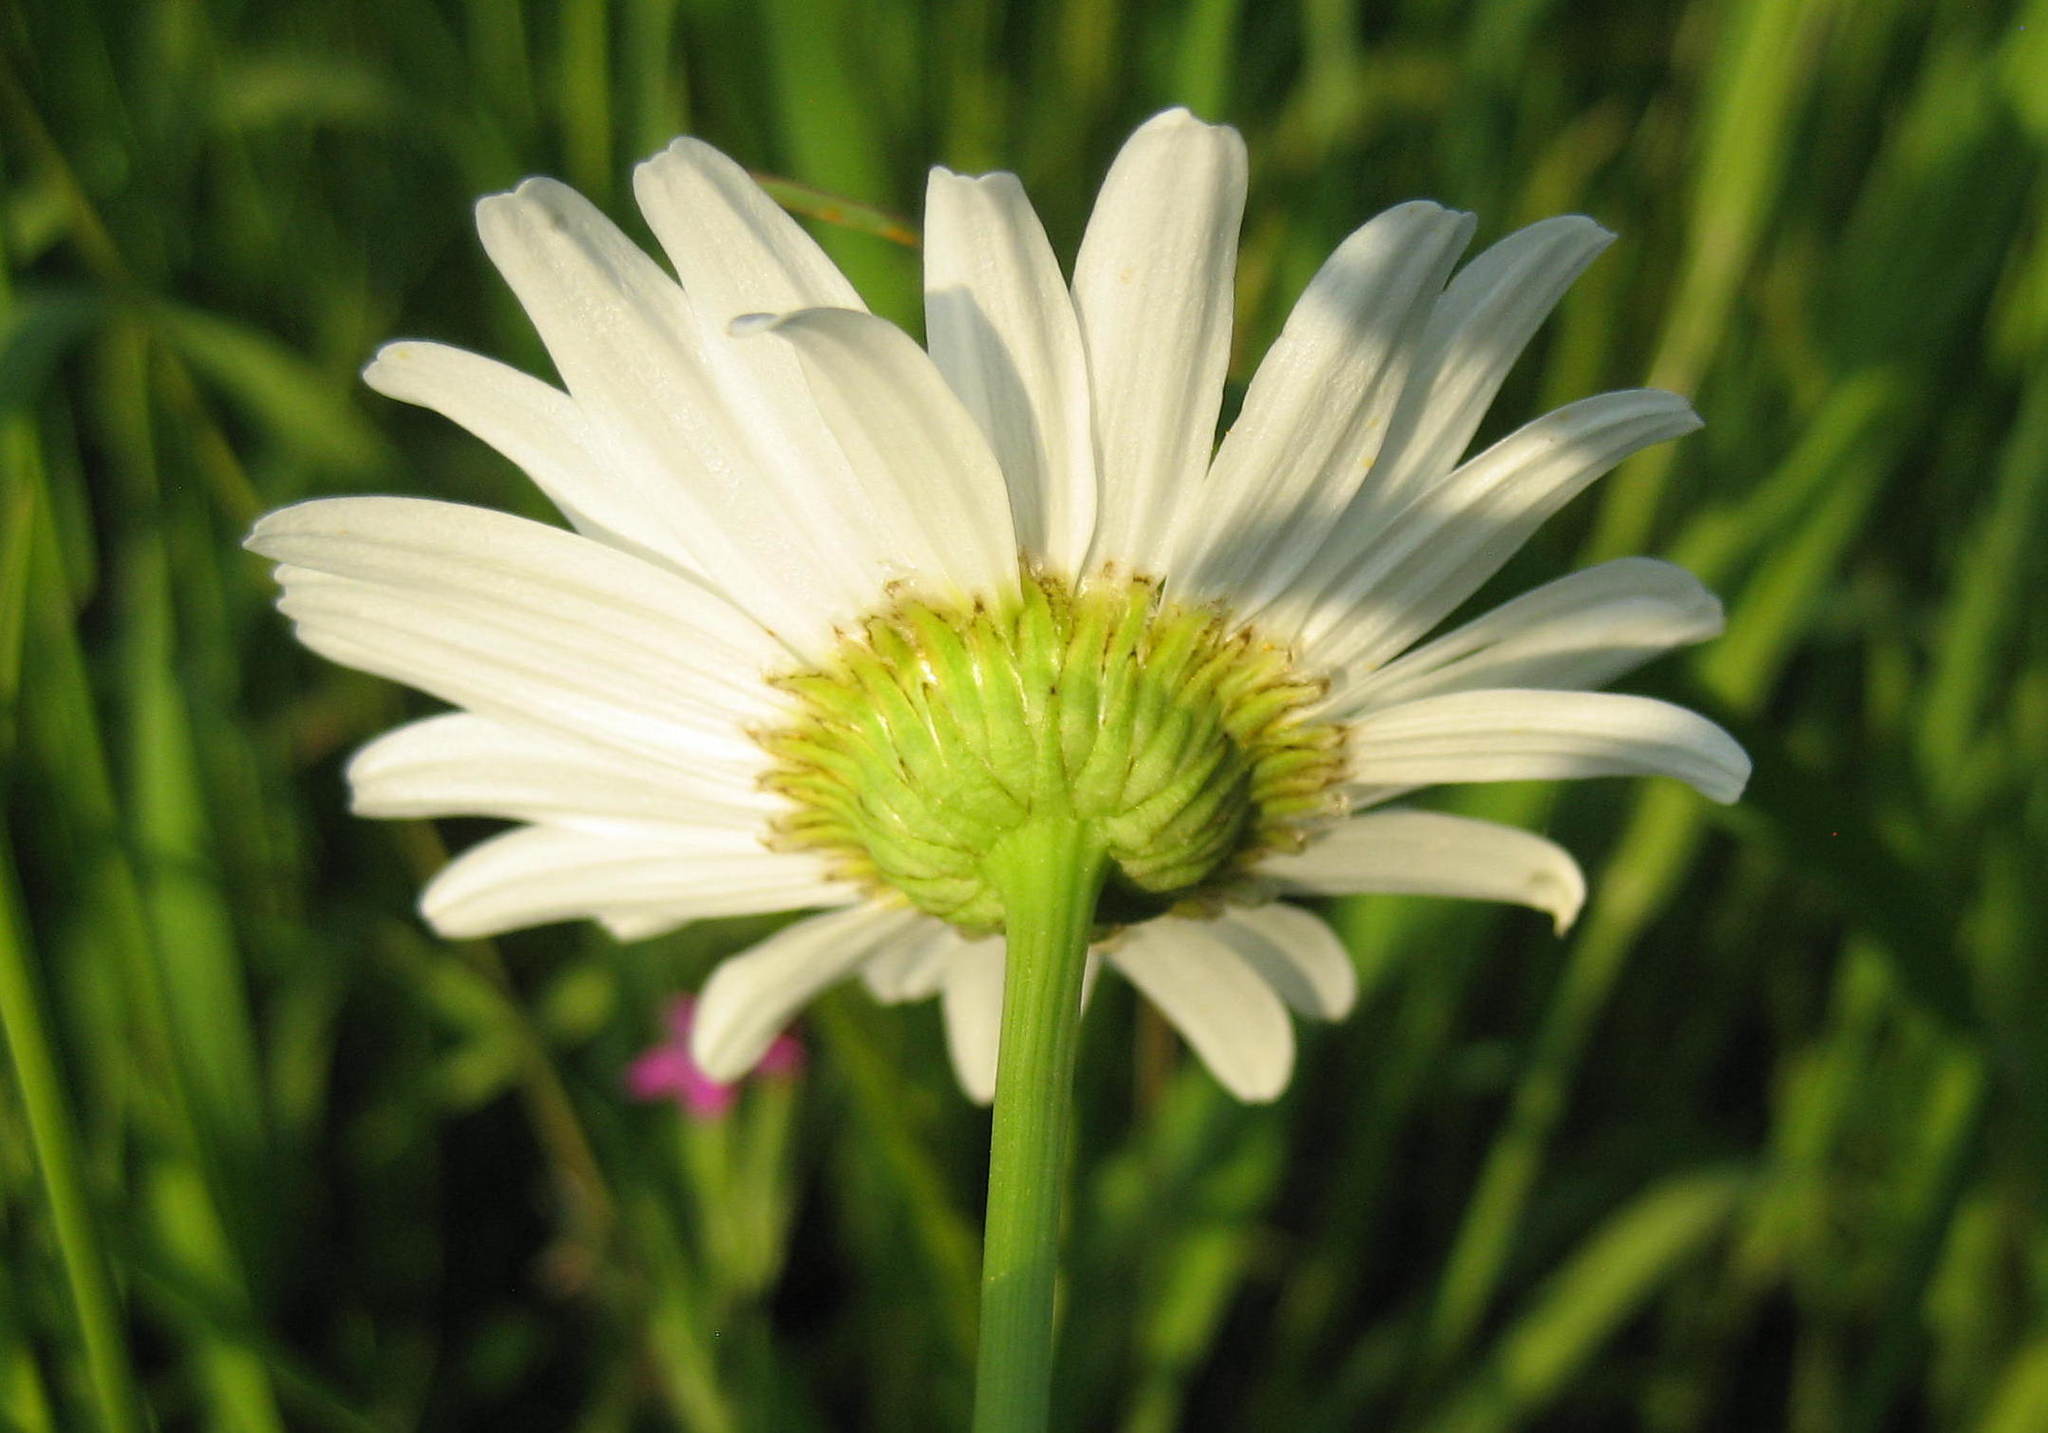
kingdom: Plantae
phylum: Tracheophyta
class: Magnoliopsida
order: Asterales
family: Asteraceae
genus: Leucanthemum
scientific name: Leucanthemum vulgare
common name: Oxeye daisy
